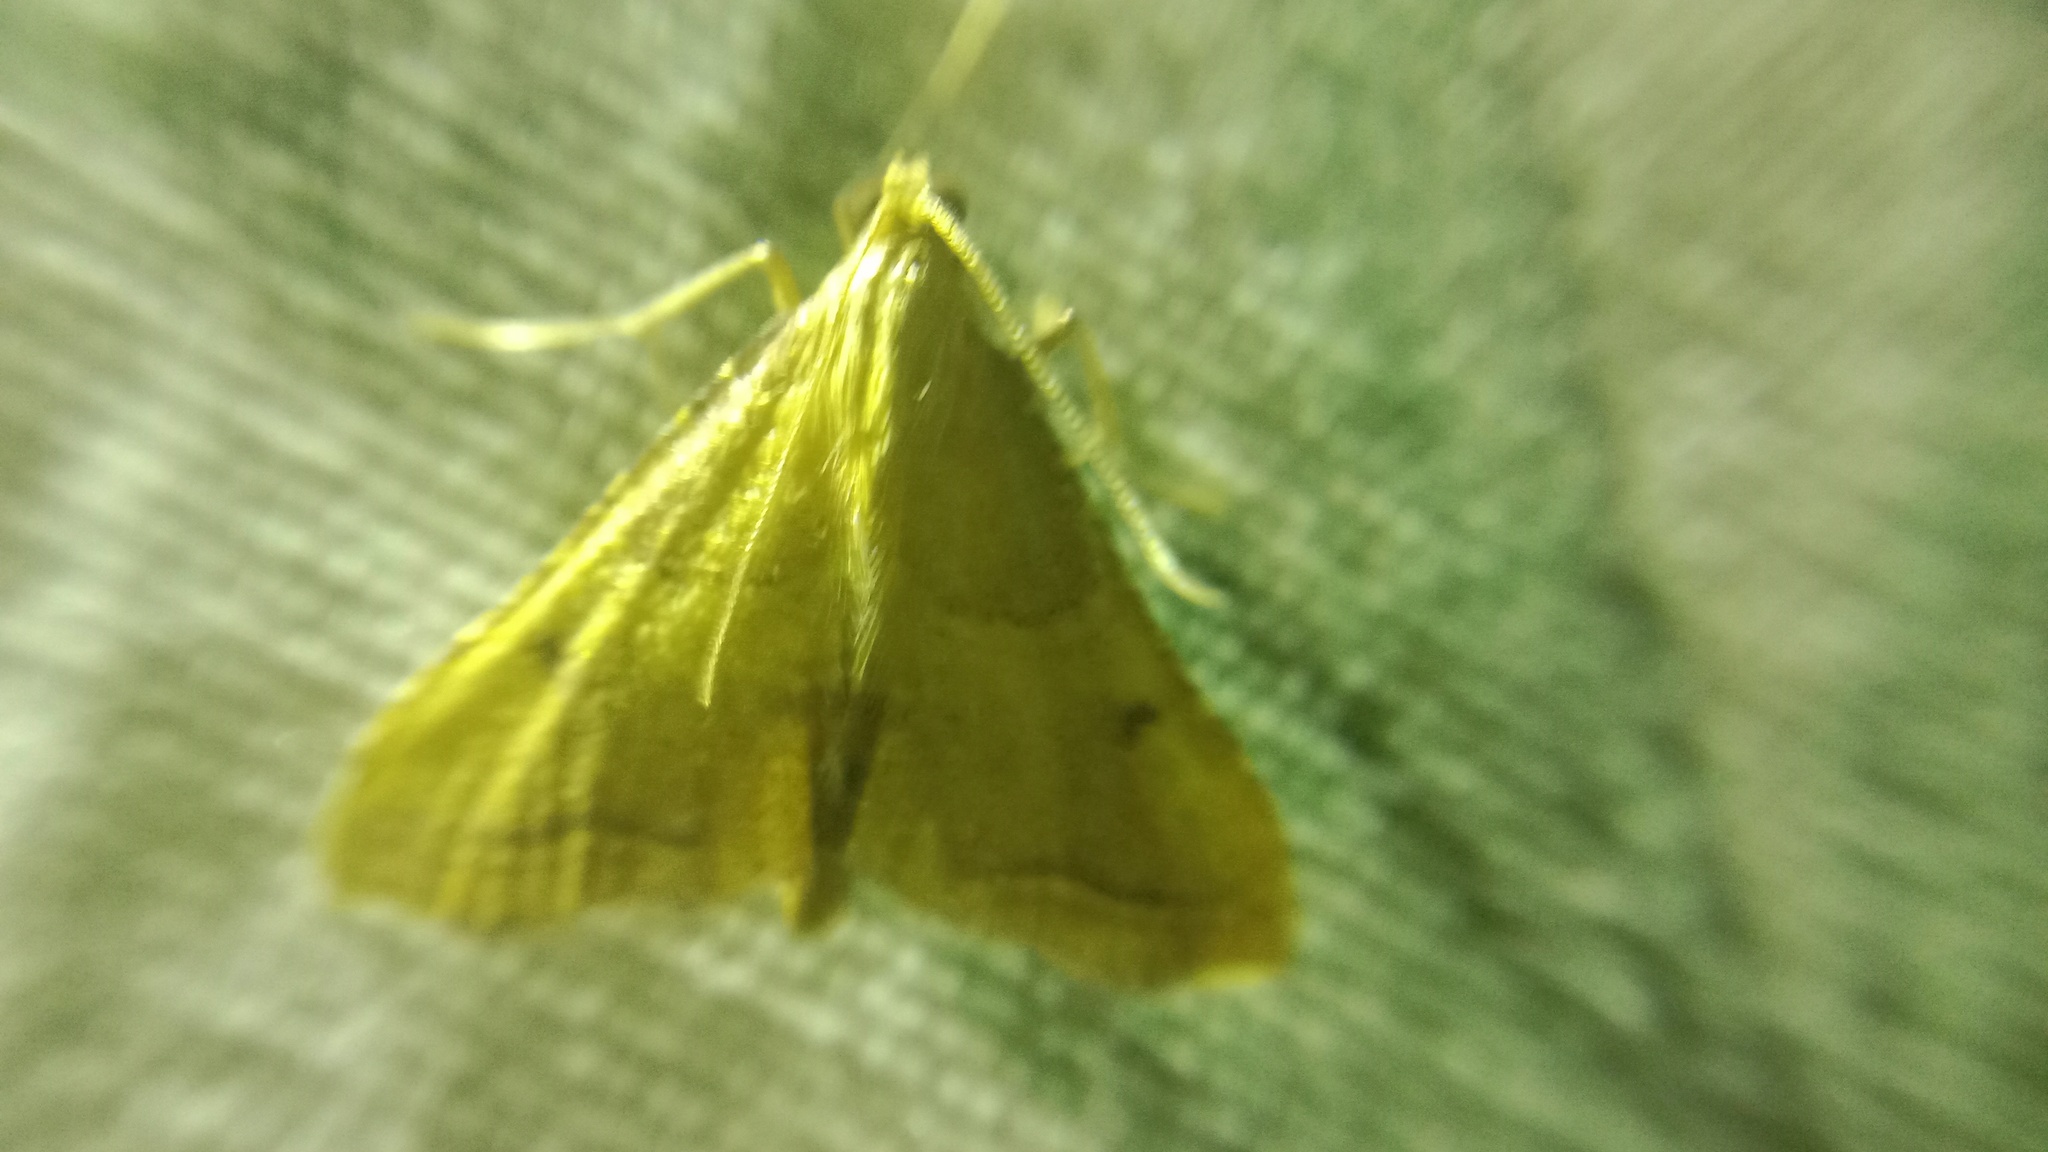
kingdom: Animalia
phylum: Arthropoda
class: Insecta
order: Lepidoptera
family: Pyralidae
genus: Endotricha
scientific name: Endotricha flammealis
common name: Rosy tabby
